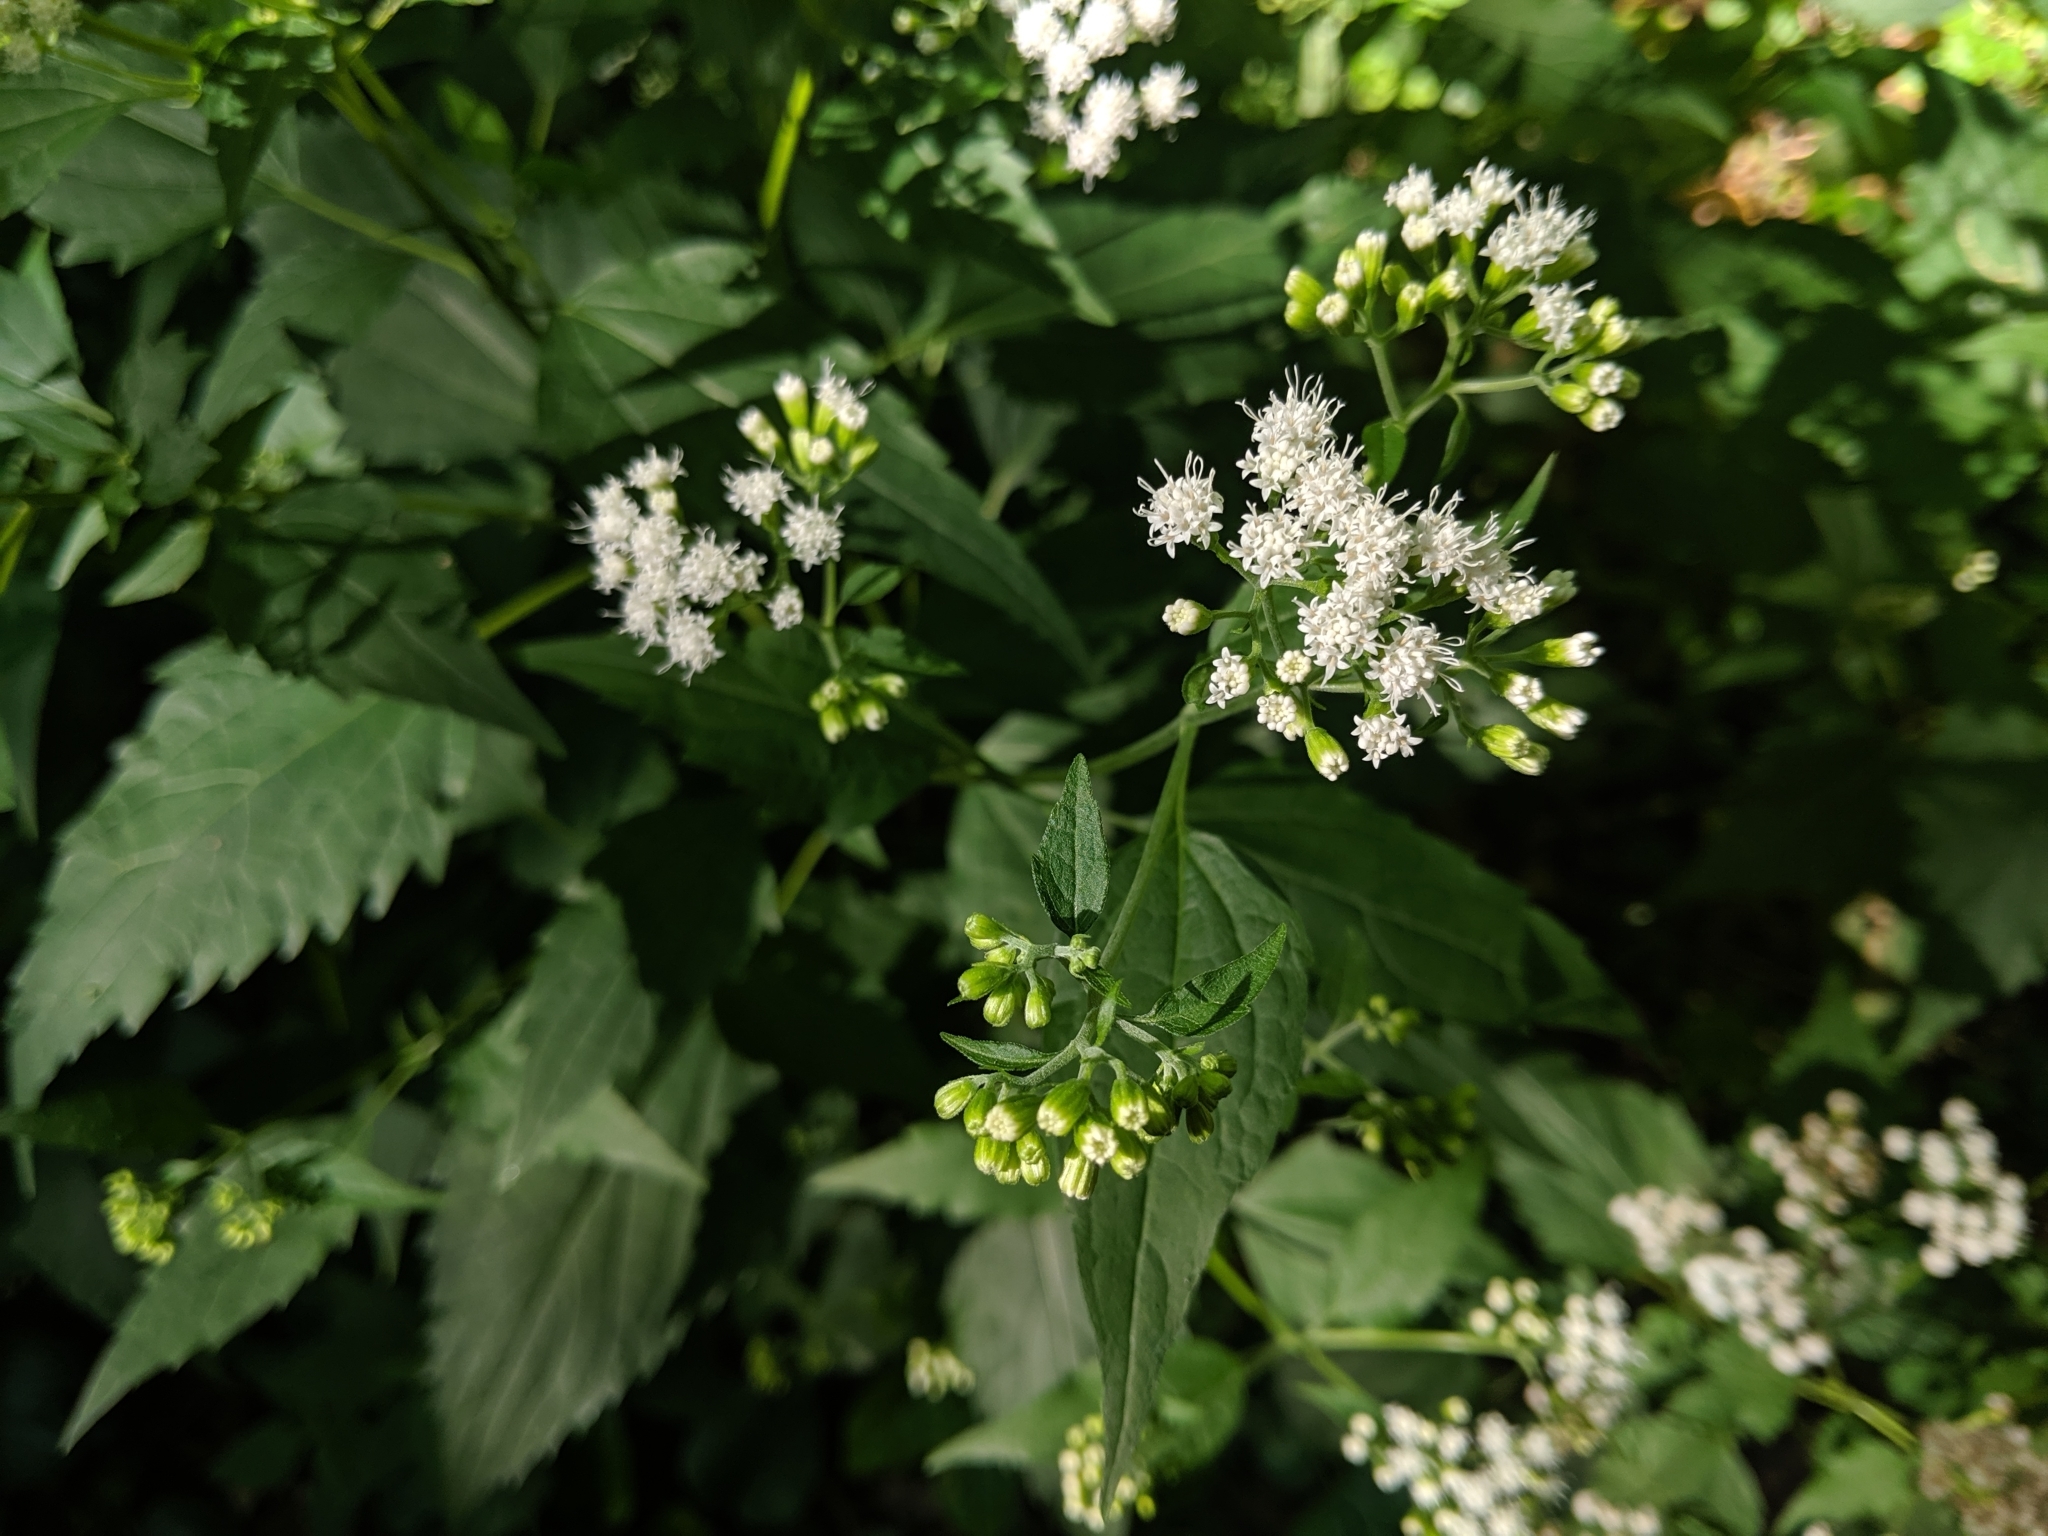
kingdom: Plantae
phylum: Tracheophyta
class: Magnoliopsida
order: Asterales
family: Asteraceae
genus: Ageratina
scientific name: Ageratina altissima
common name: White snakeroot
